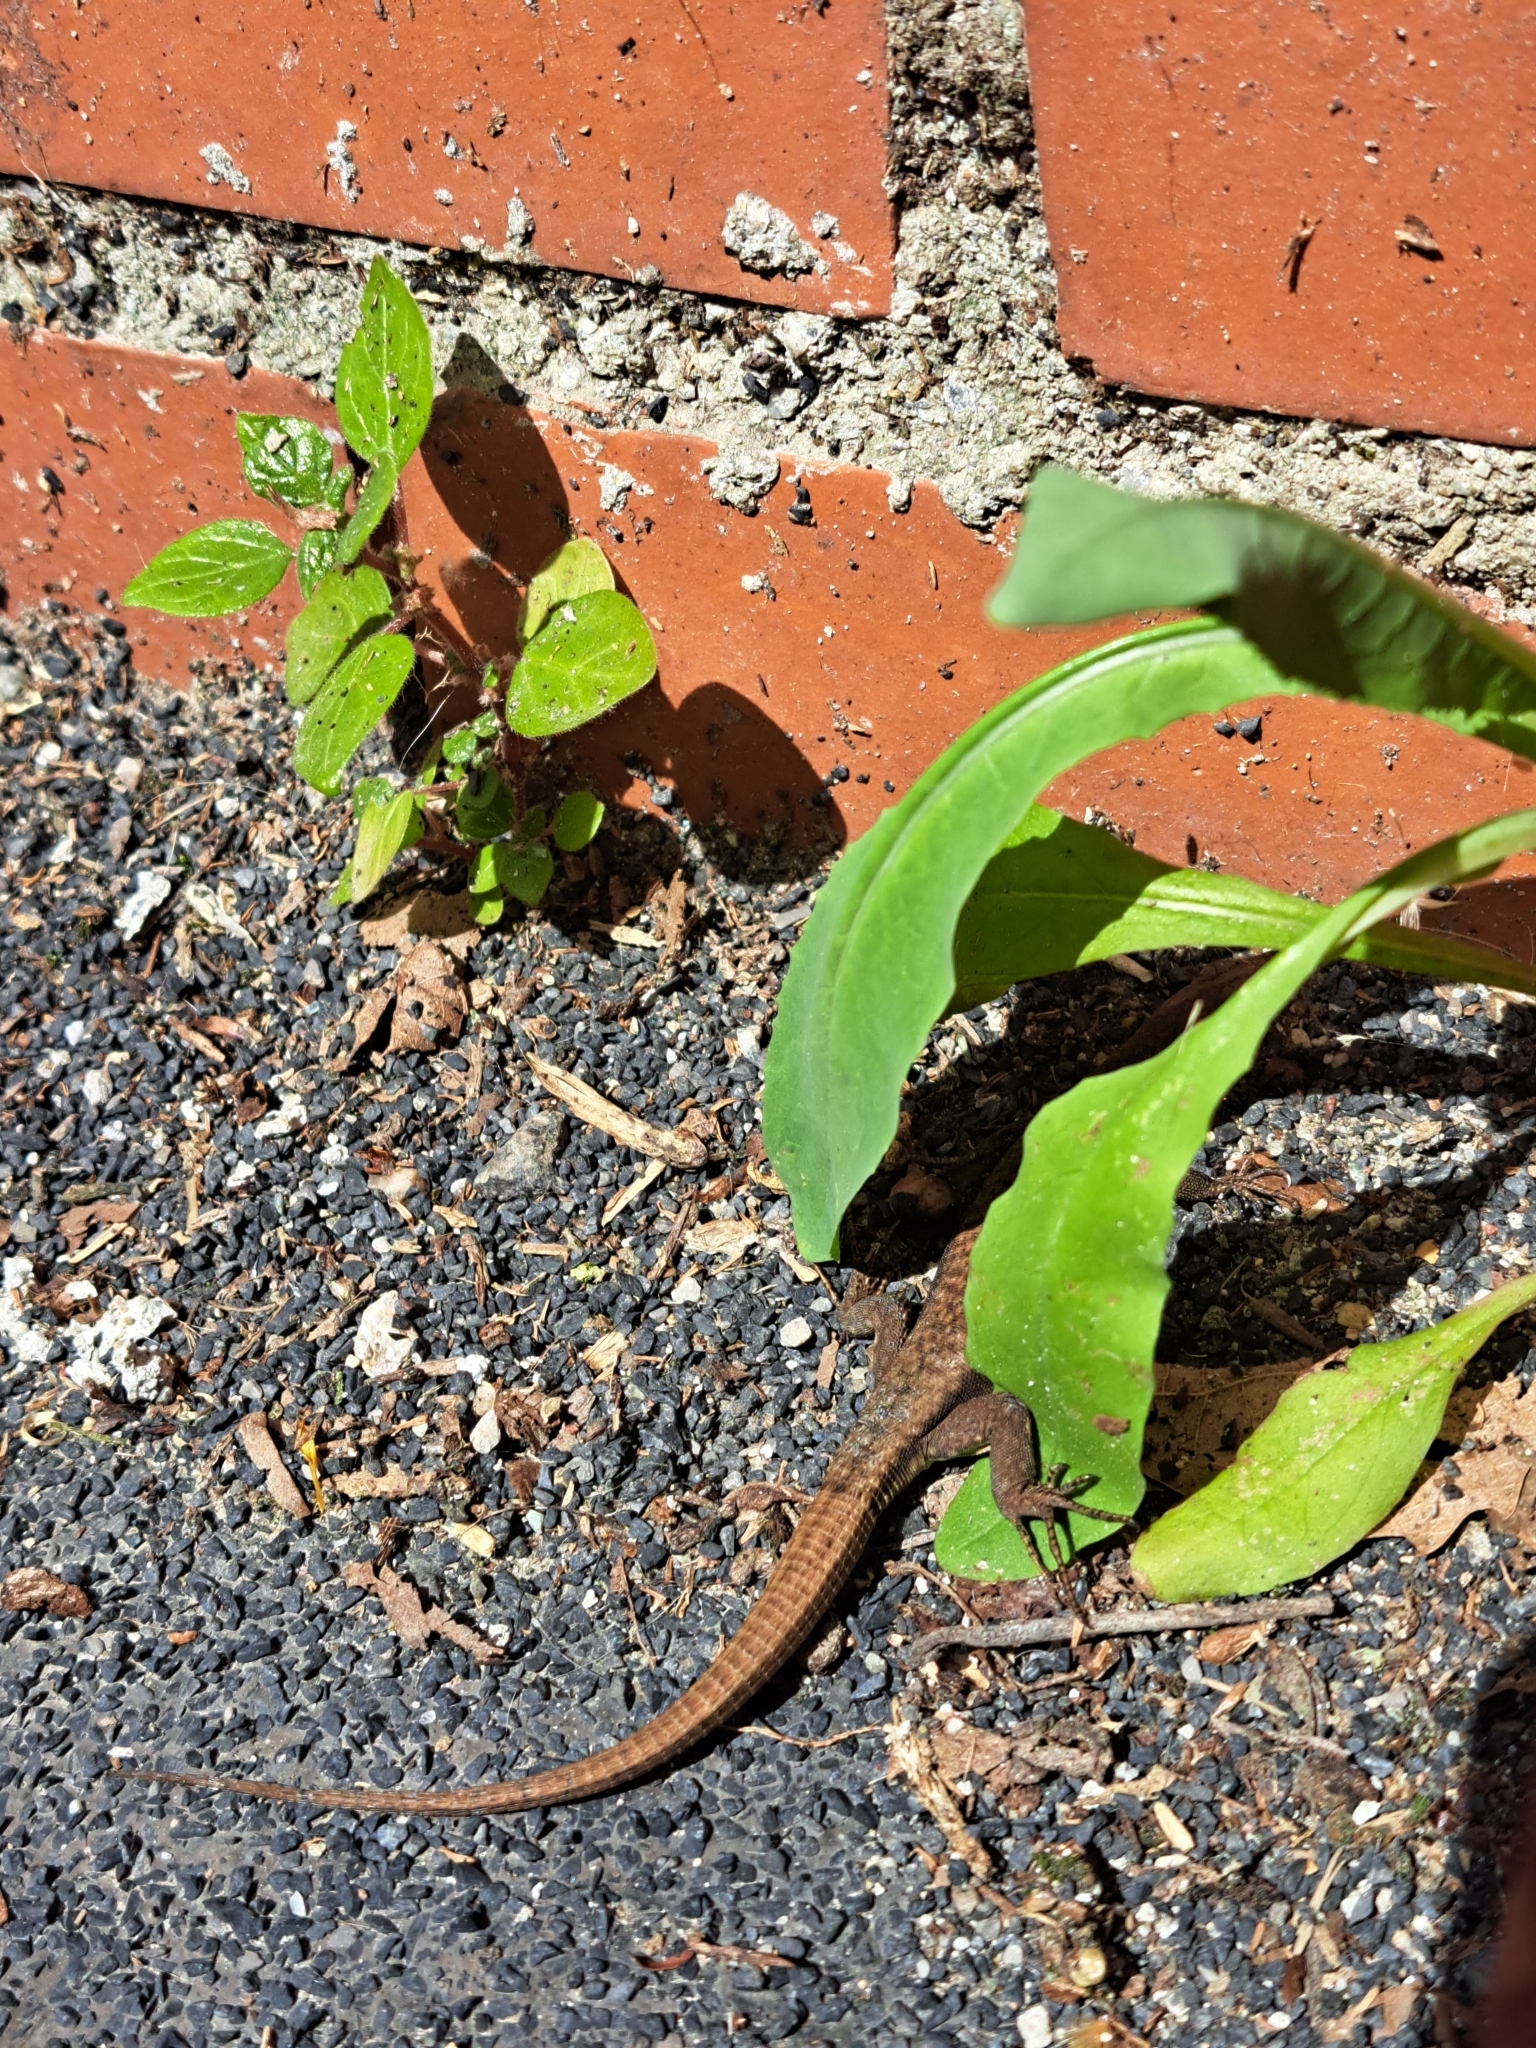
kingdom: Animalia
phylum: Chordata
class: Squamata
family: Lacertidae
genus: Podarcis
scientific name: Podarcis muralis
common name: Common wall lizard
